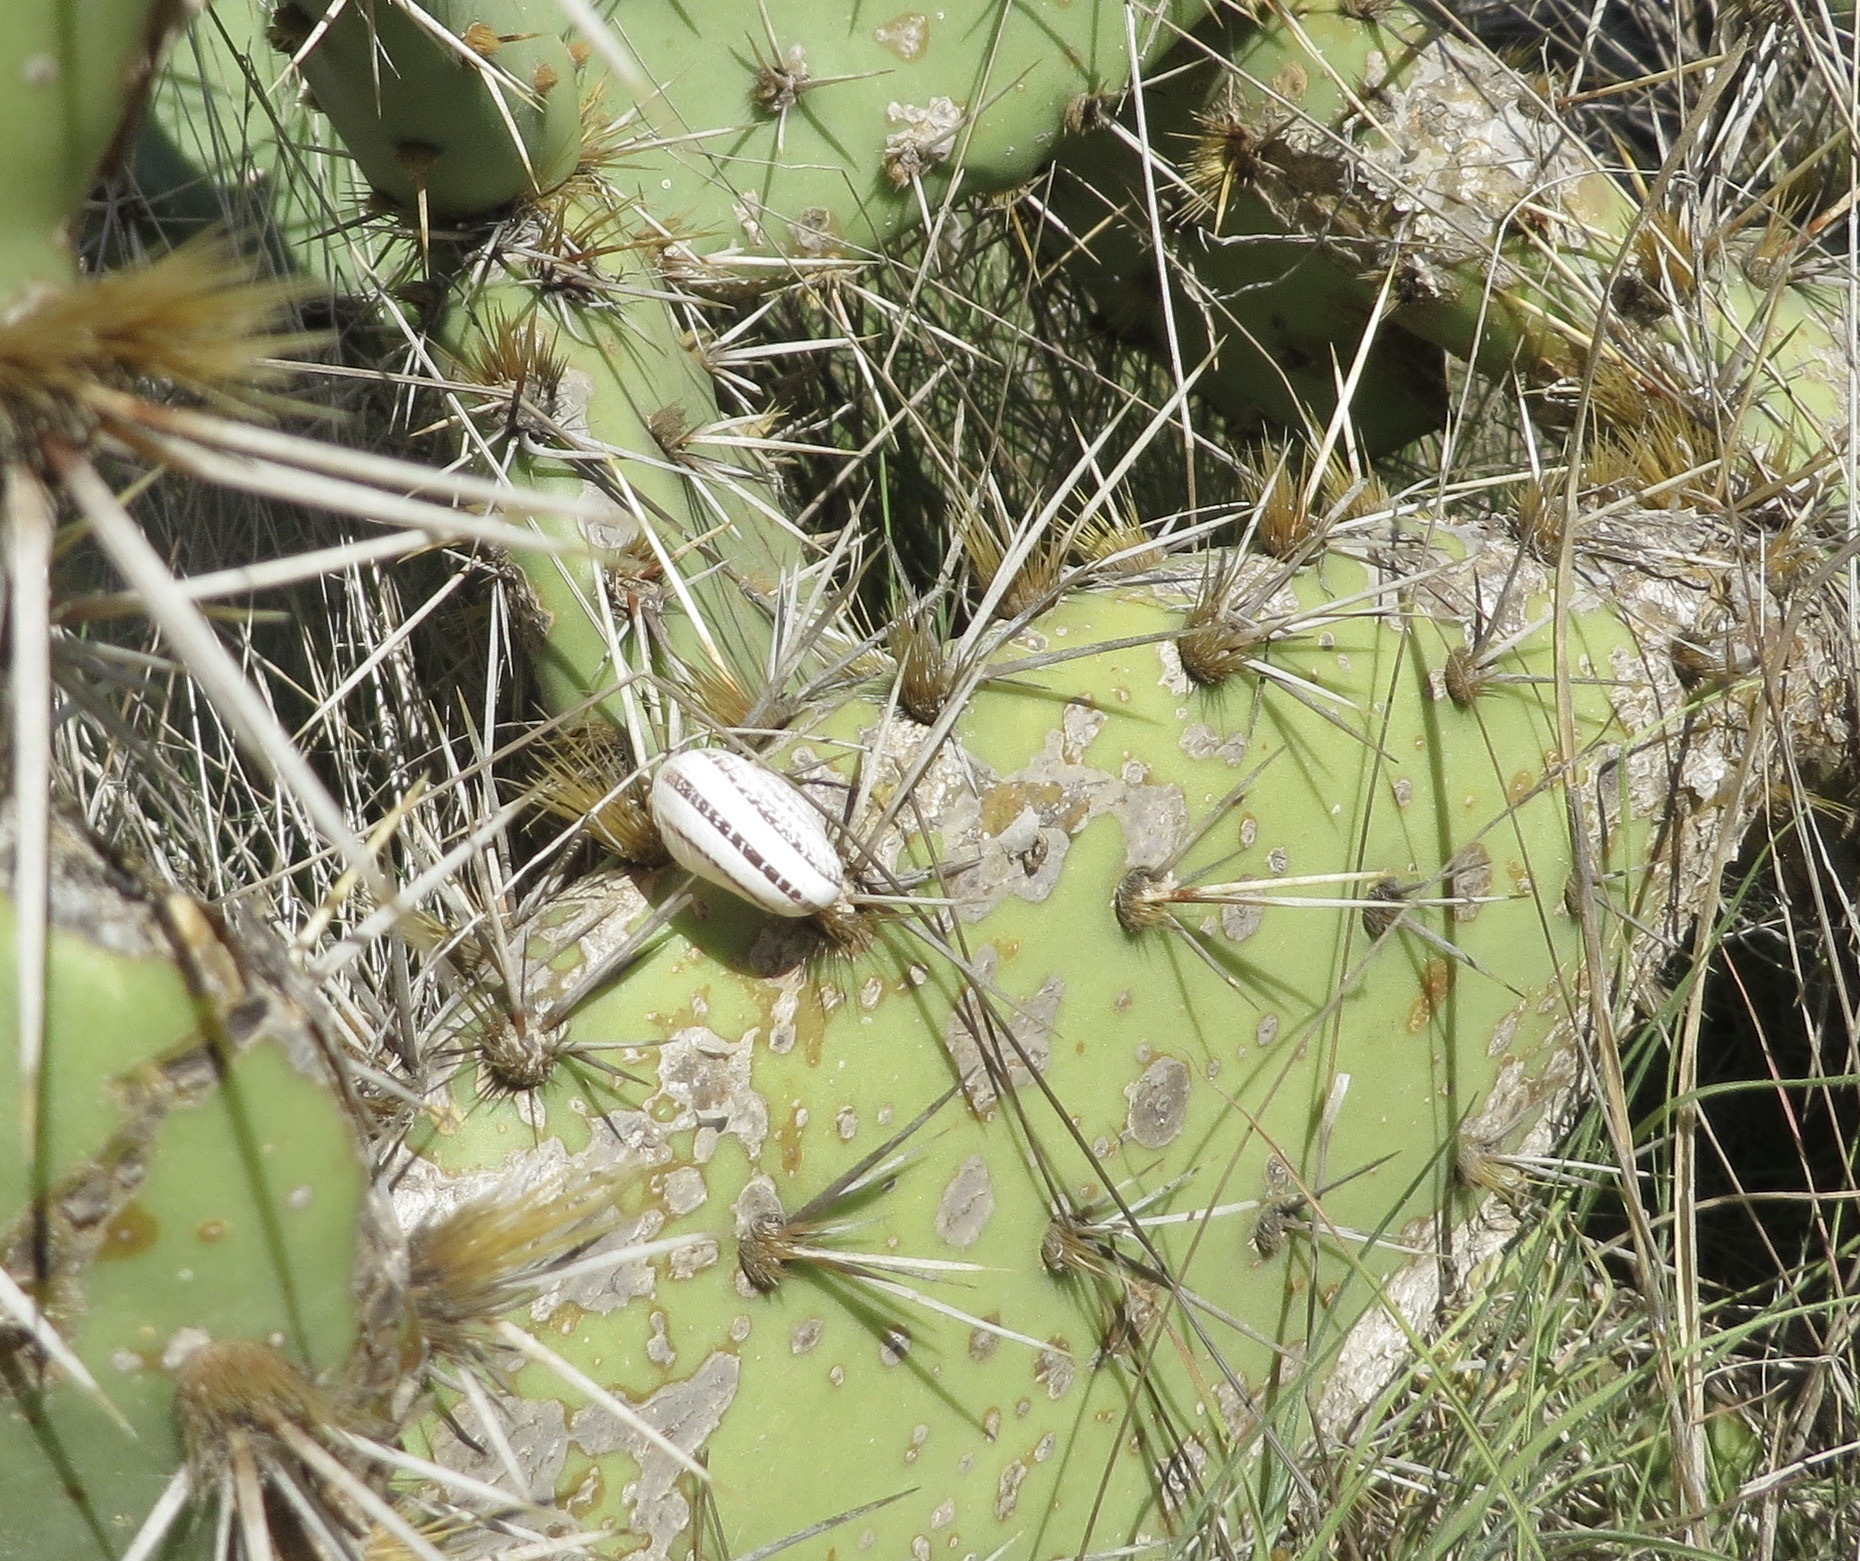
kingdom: Animalia
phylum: Mollusca
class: Gastropoda
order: Stylommatophora
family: Helicidae
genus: Otala
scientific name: Otala lactea
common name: Milk snail
